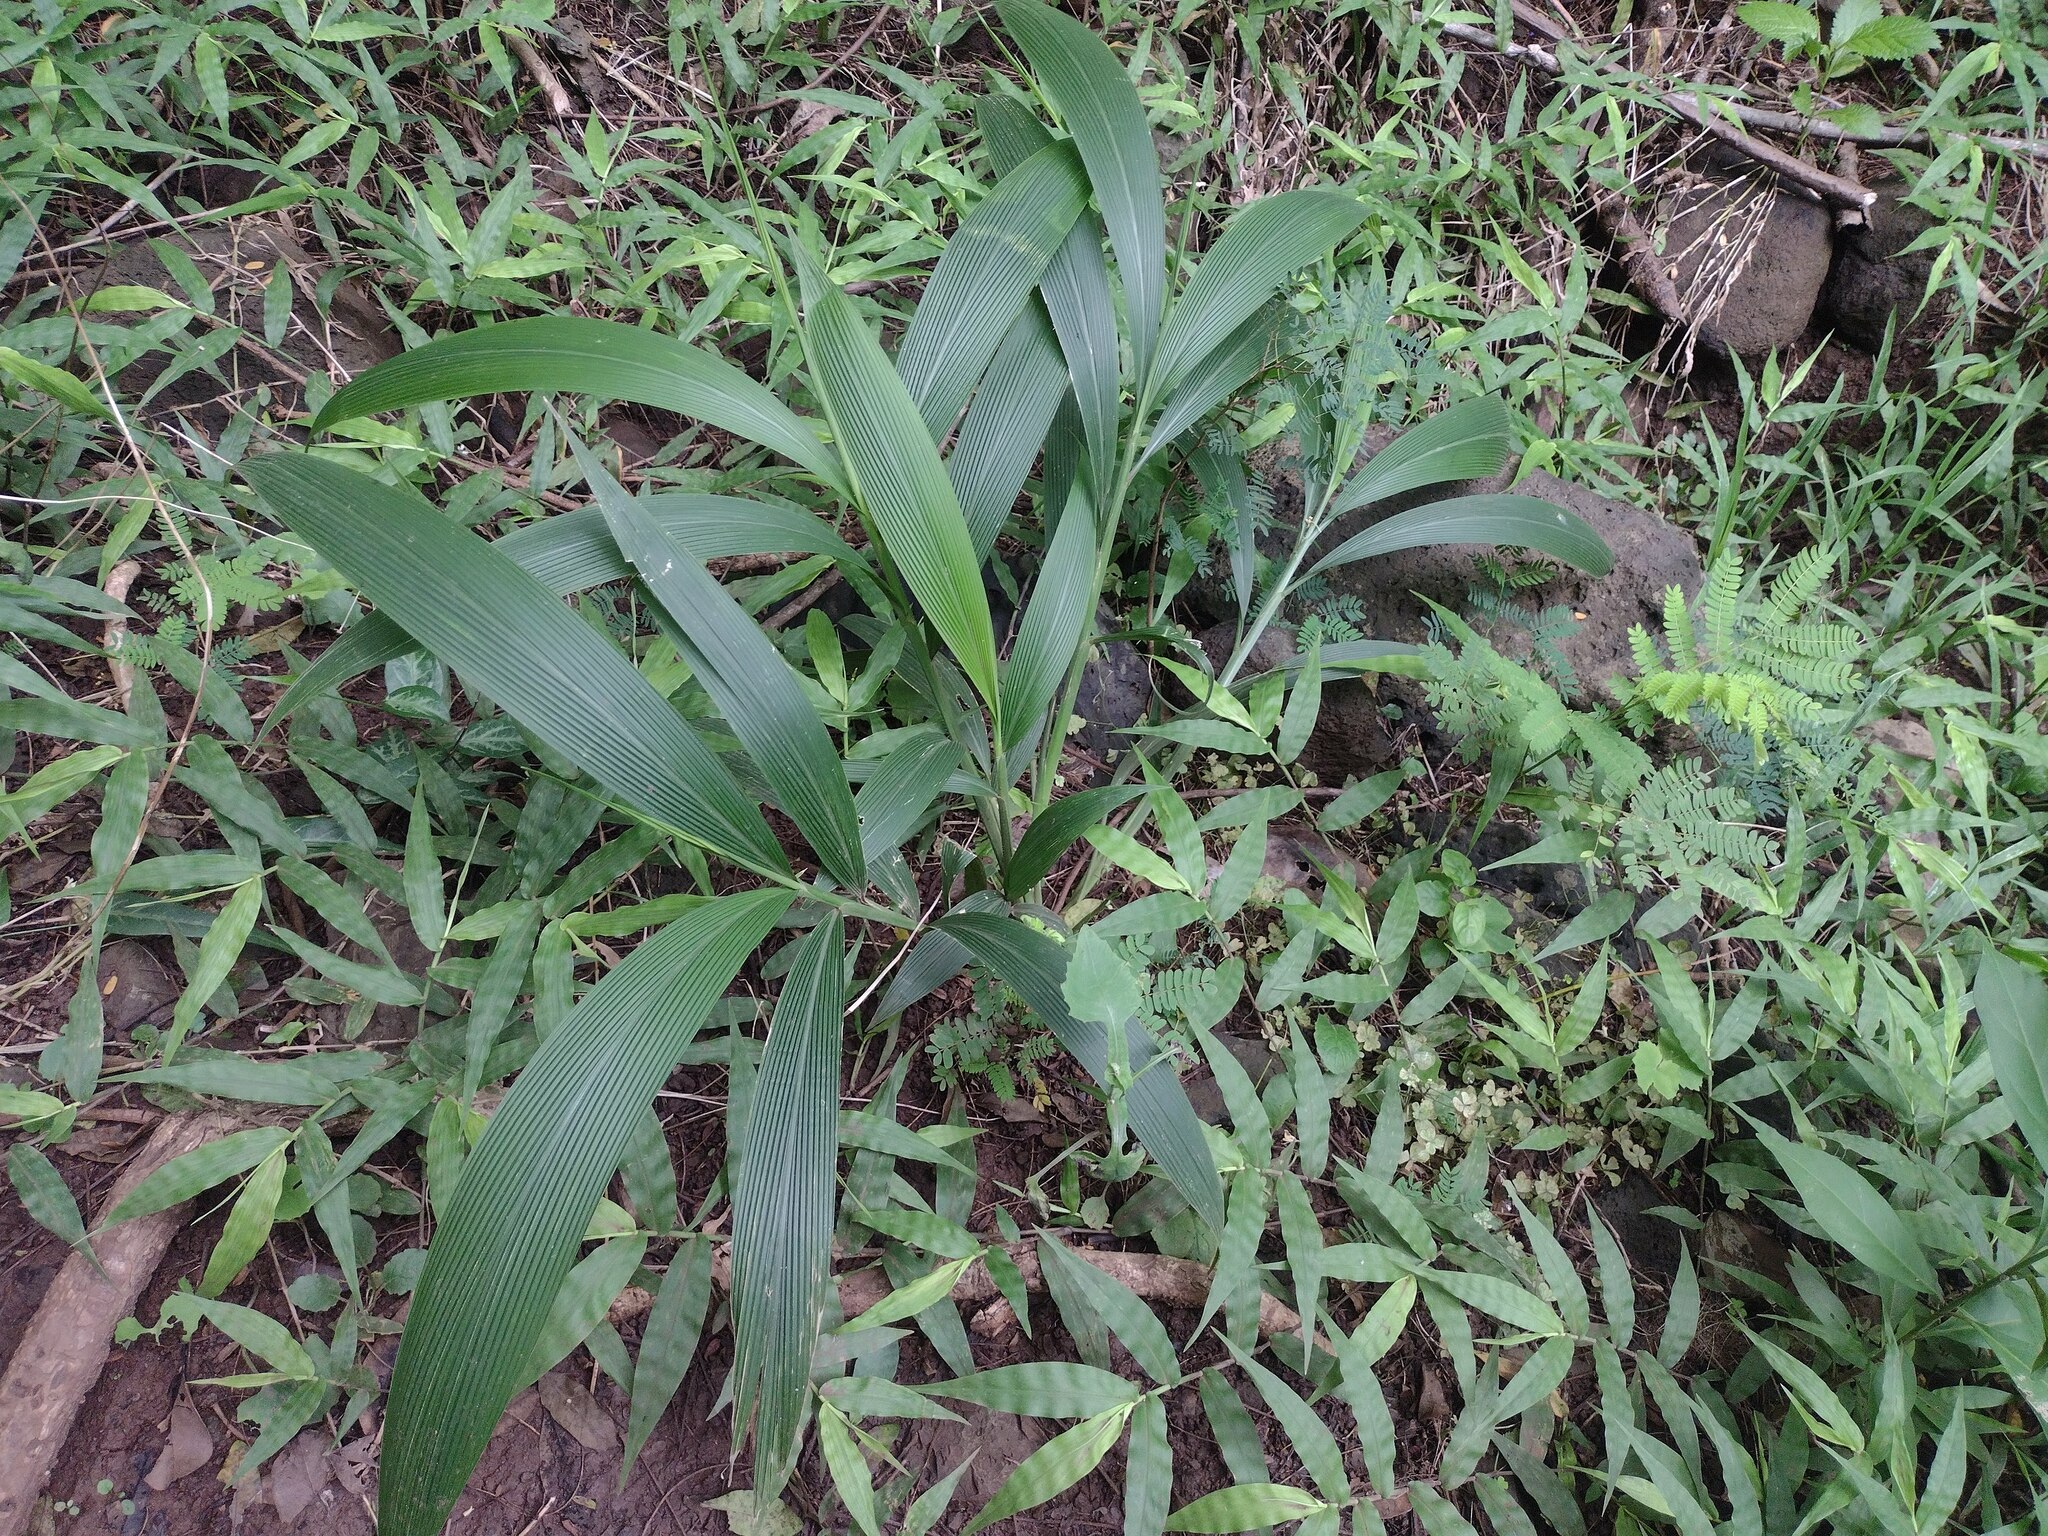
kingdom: Plantae
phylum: Tracheophyta
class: Liliopsida
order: Poales
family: Poaceae
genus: Setaria
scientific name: Setaria palmifolia
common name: Broadleaved bristlegrass
